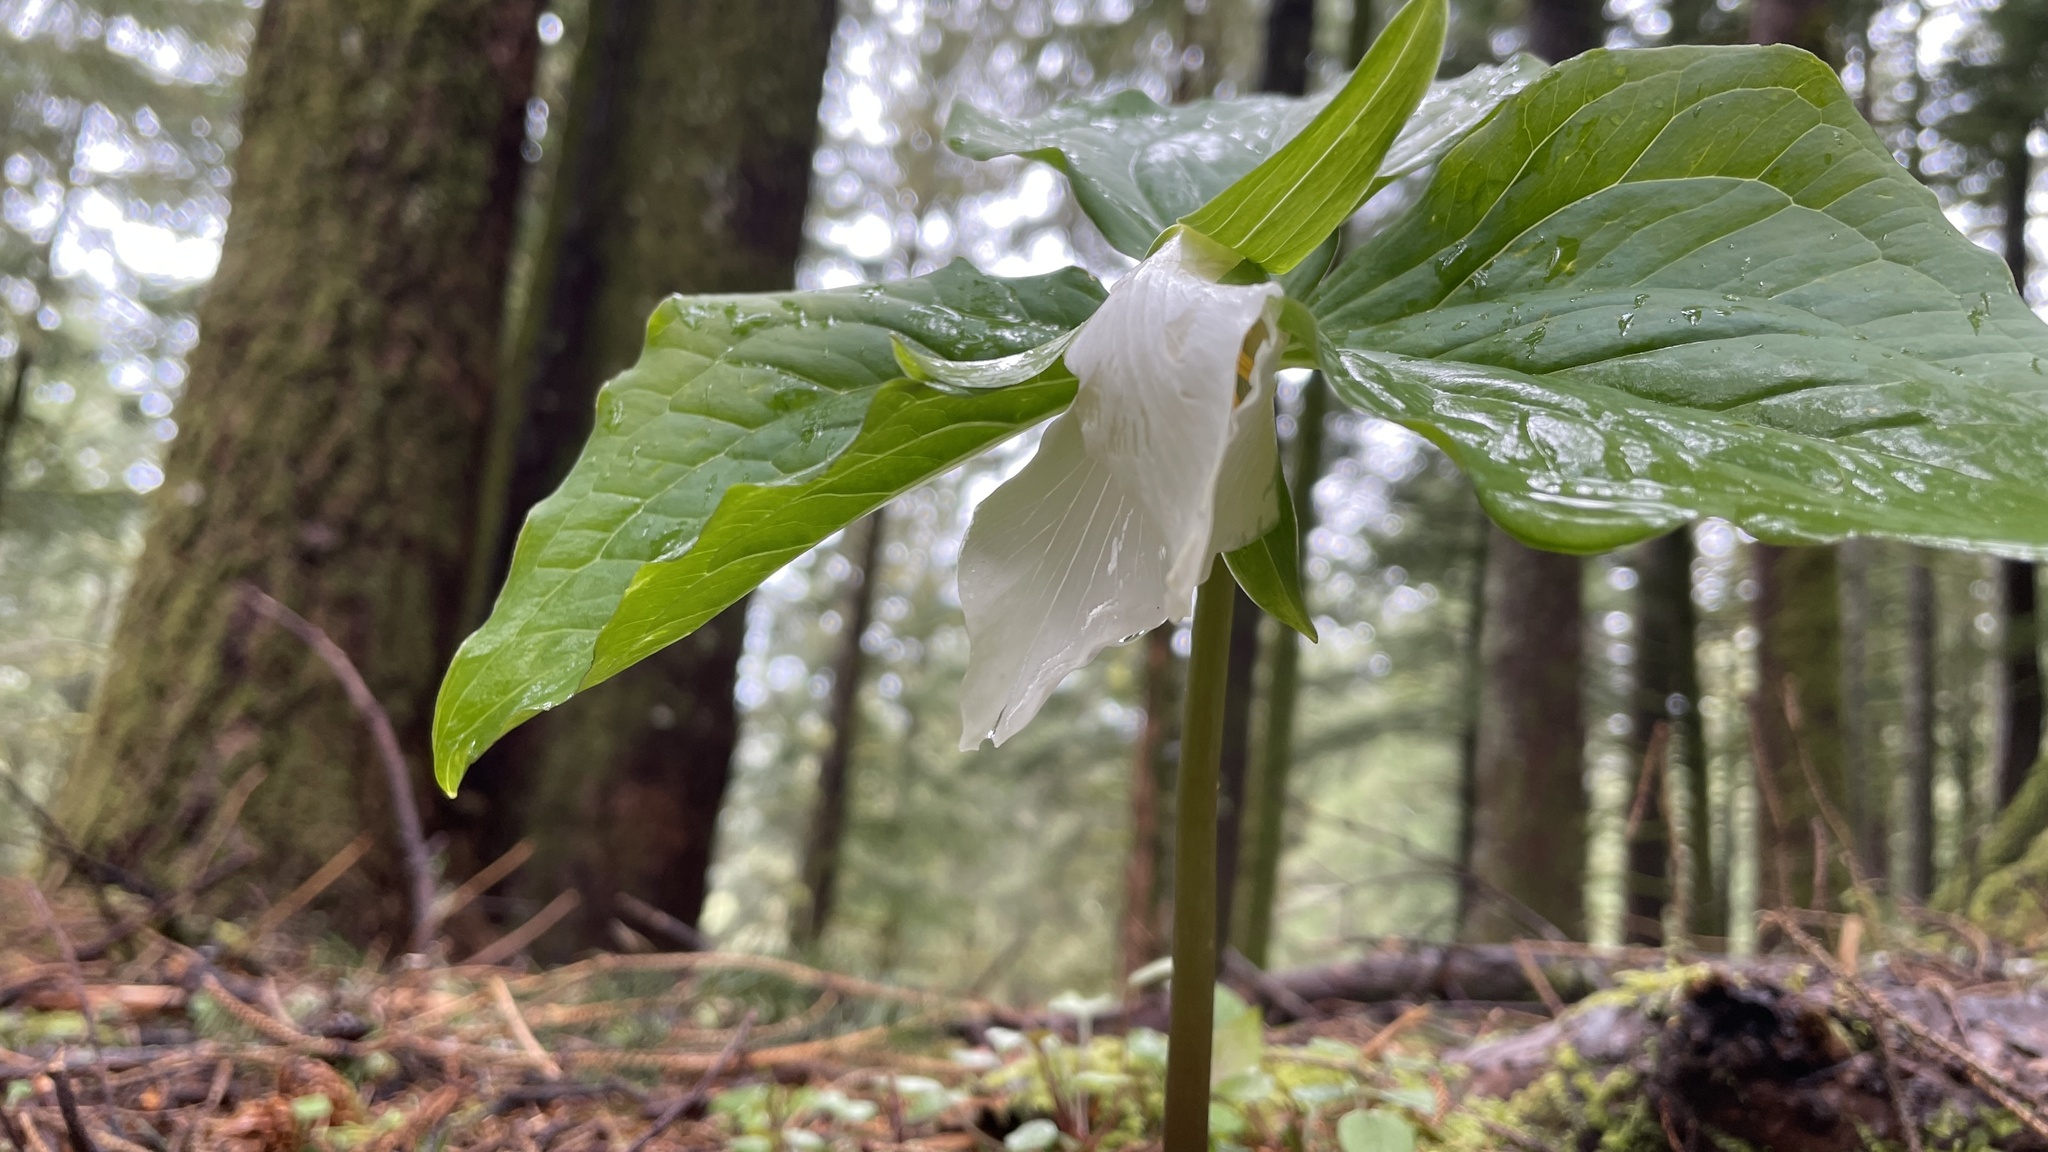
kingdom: Plantae
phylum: Tracheophyta
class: Liliopsida
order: Liliales
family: Melanthiaceae
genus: Trillium
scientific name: Trillium ovatum
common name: Pacific trillium
